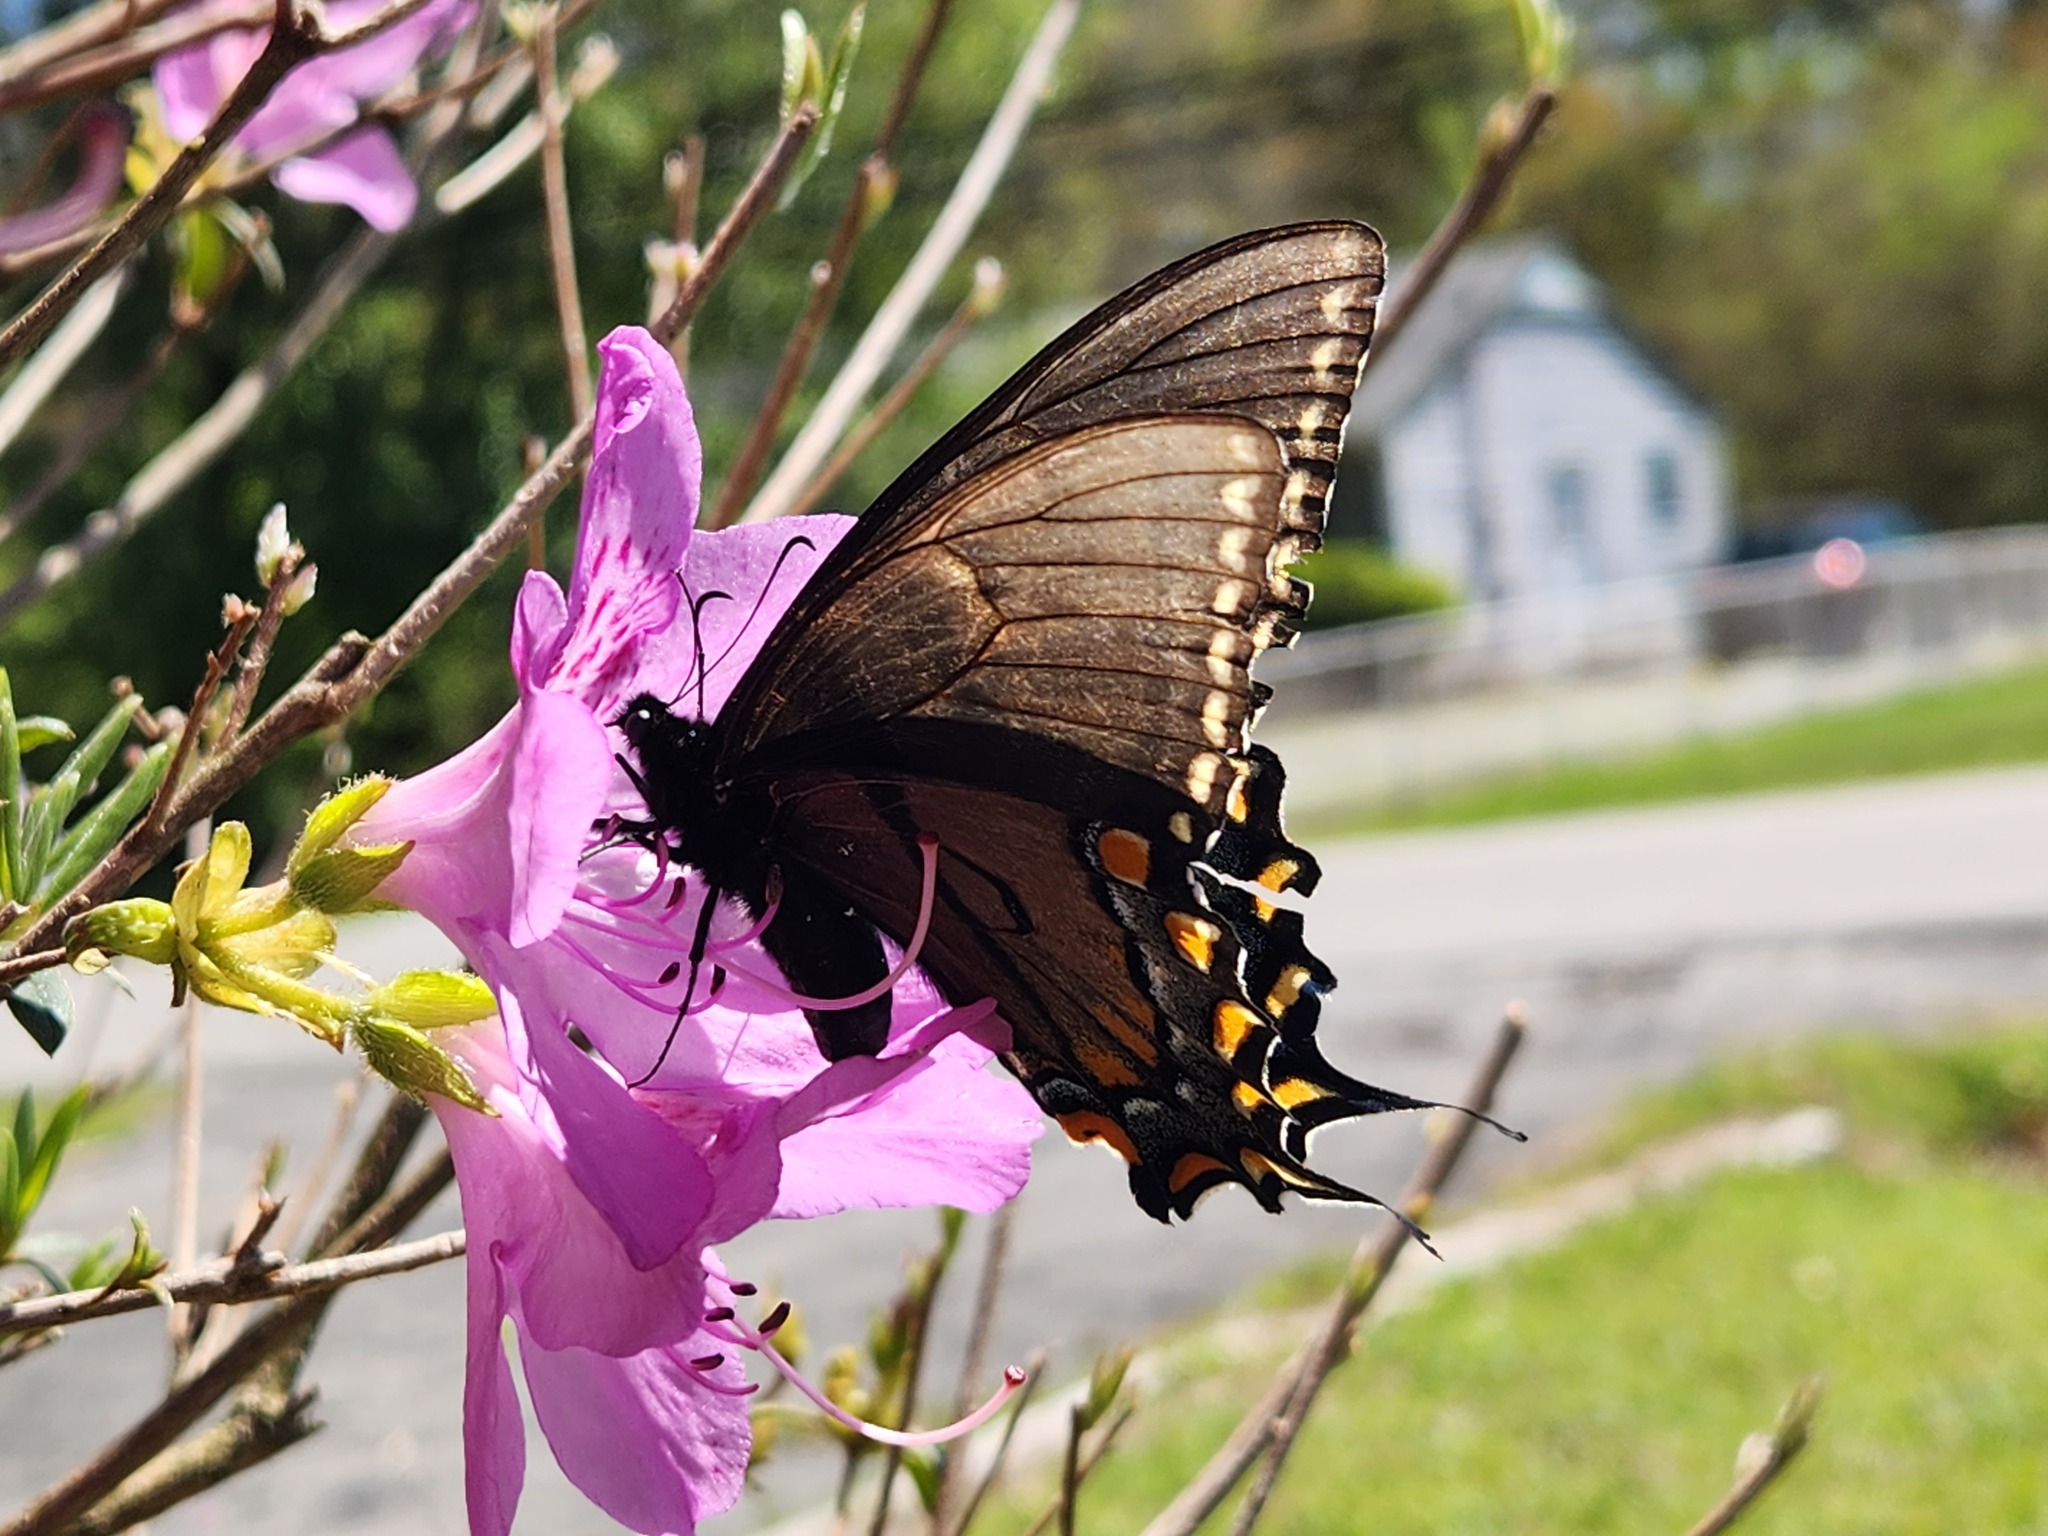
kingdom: Animalia
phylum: Arthropoda
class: Insecta
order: Lepidoptera
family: Papilionidae
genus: Papilio
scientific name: Papilio glaucus
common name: Tiger swallowtail
